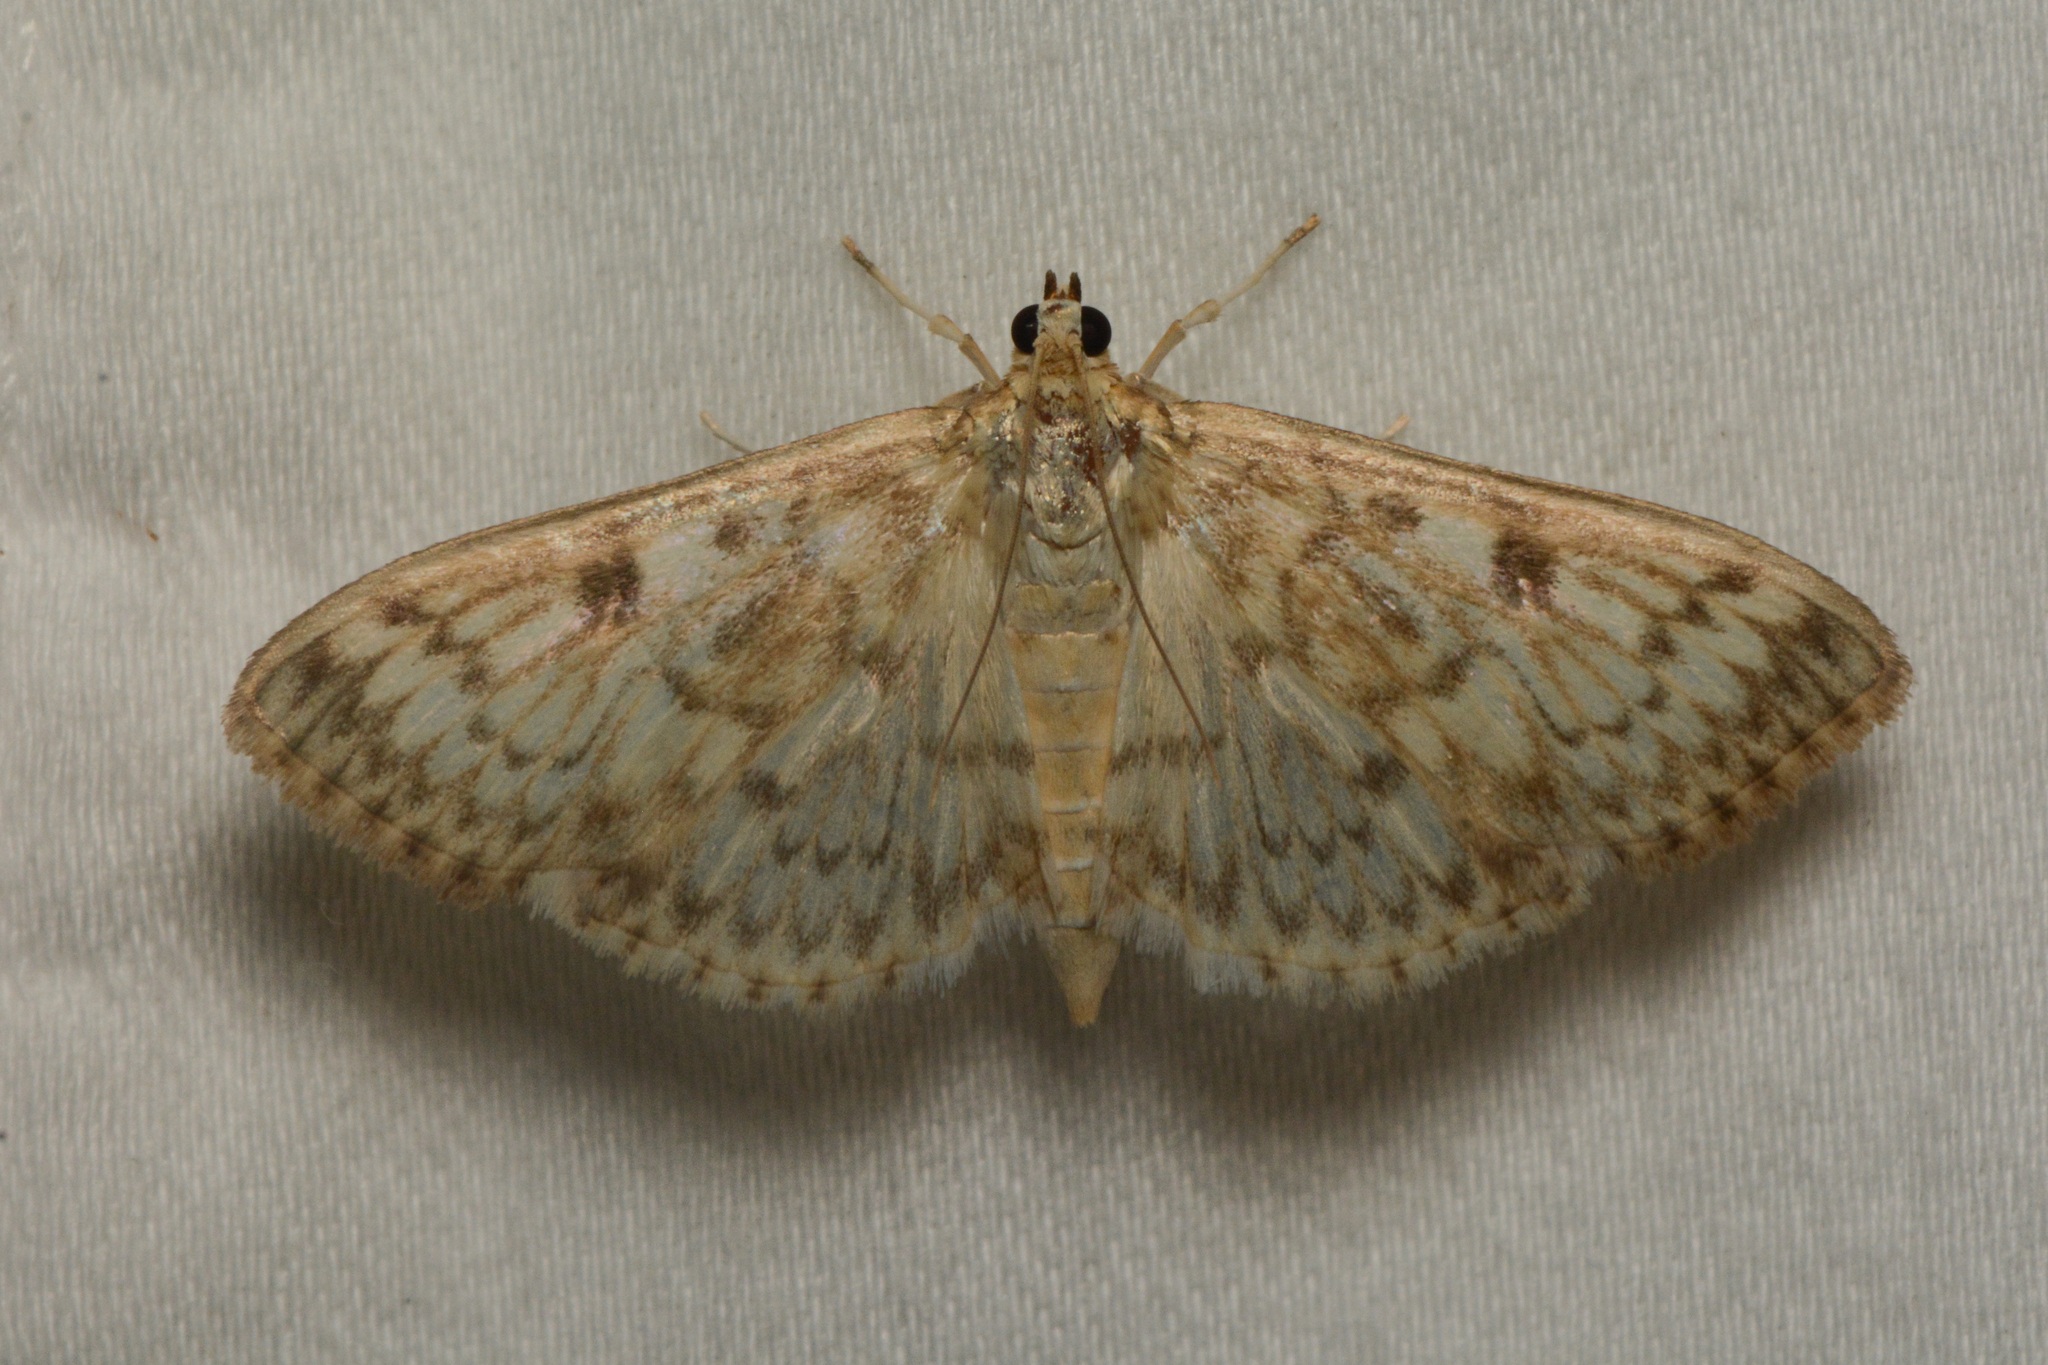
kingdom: Animalia
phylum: Arthropoda
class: Insecta
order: Lepidoptera
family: Crambidae
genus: Herpetogramma
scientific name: Herpetogramma aquilonalis
